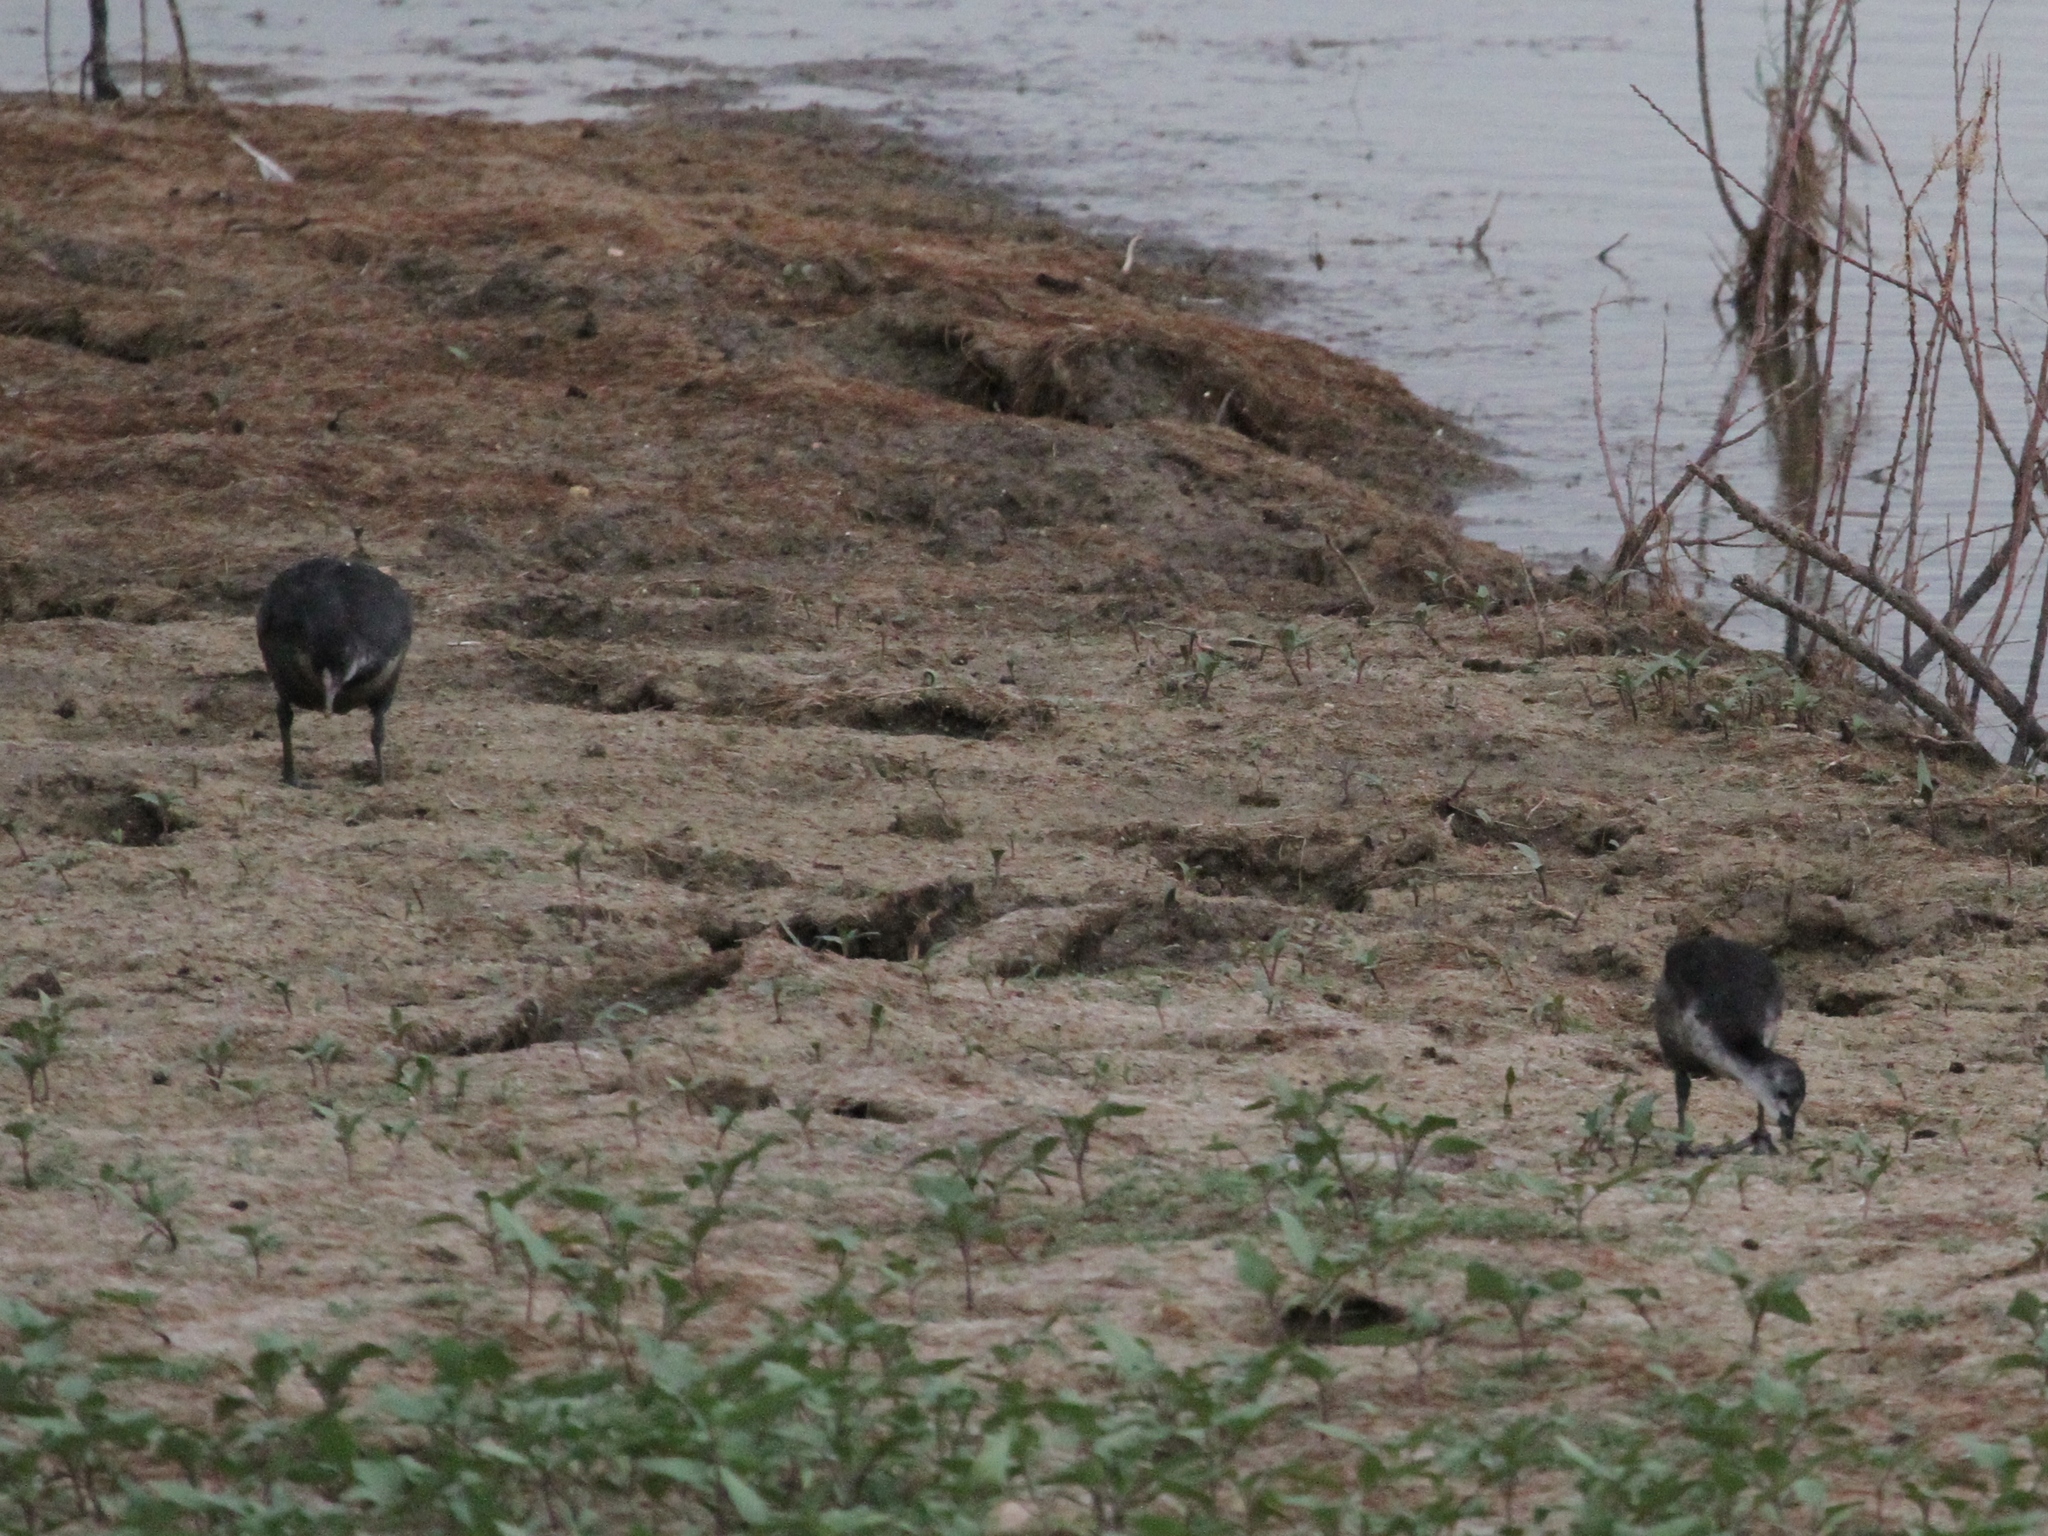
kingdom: Animalia
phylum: Chordata
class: Aves
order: Gruiformes
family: Rallidae
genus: Fulica
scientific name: Fulica atra
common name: Eurasian coot
